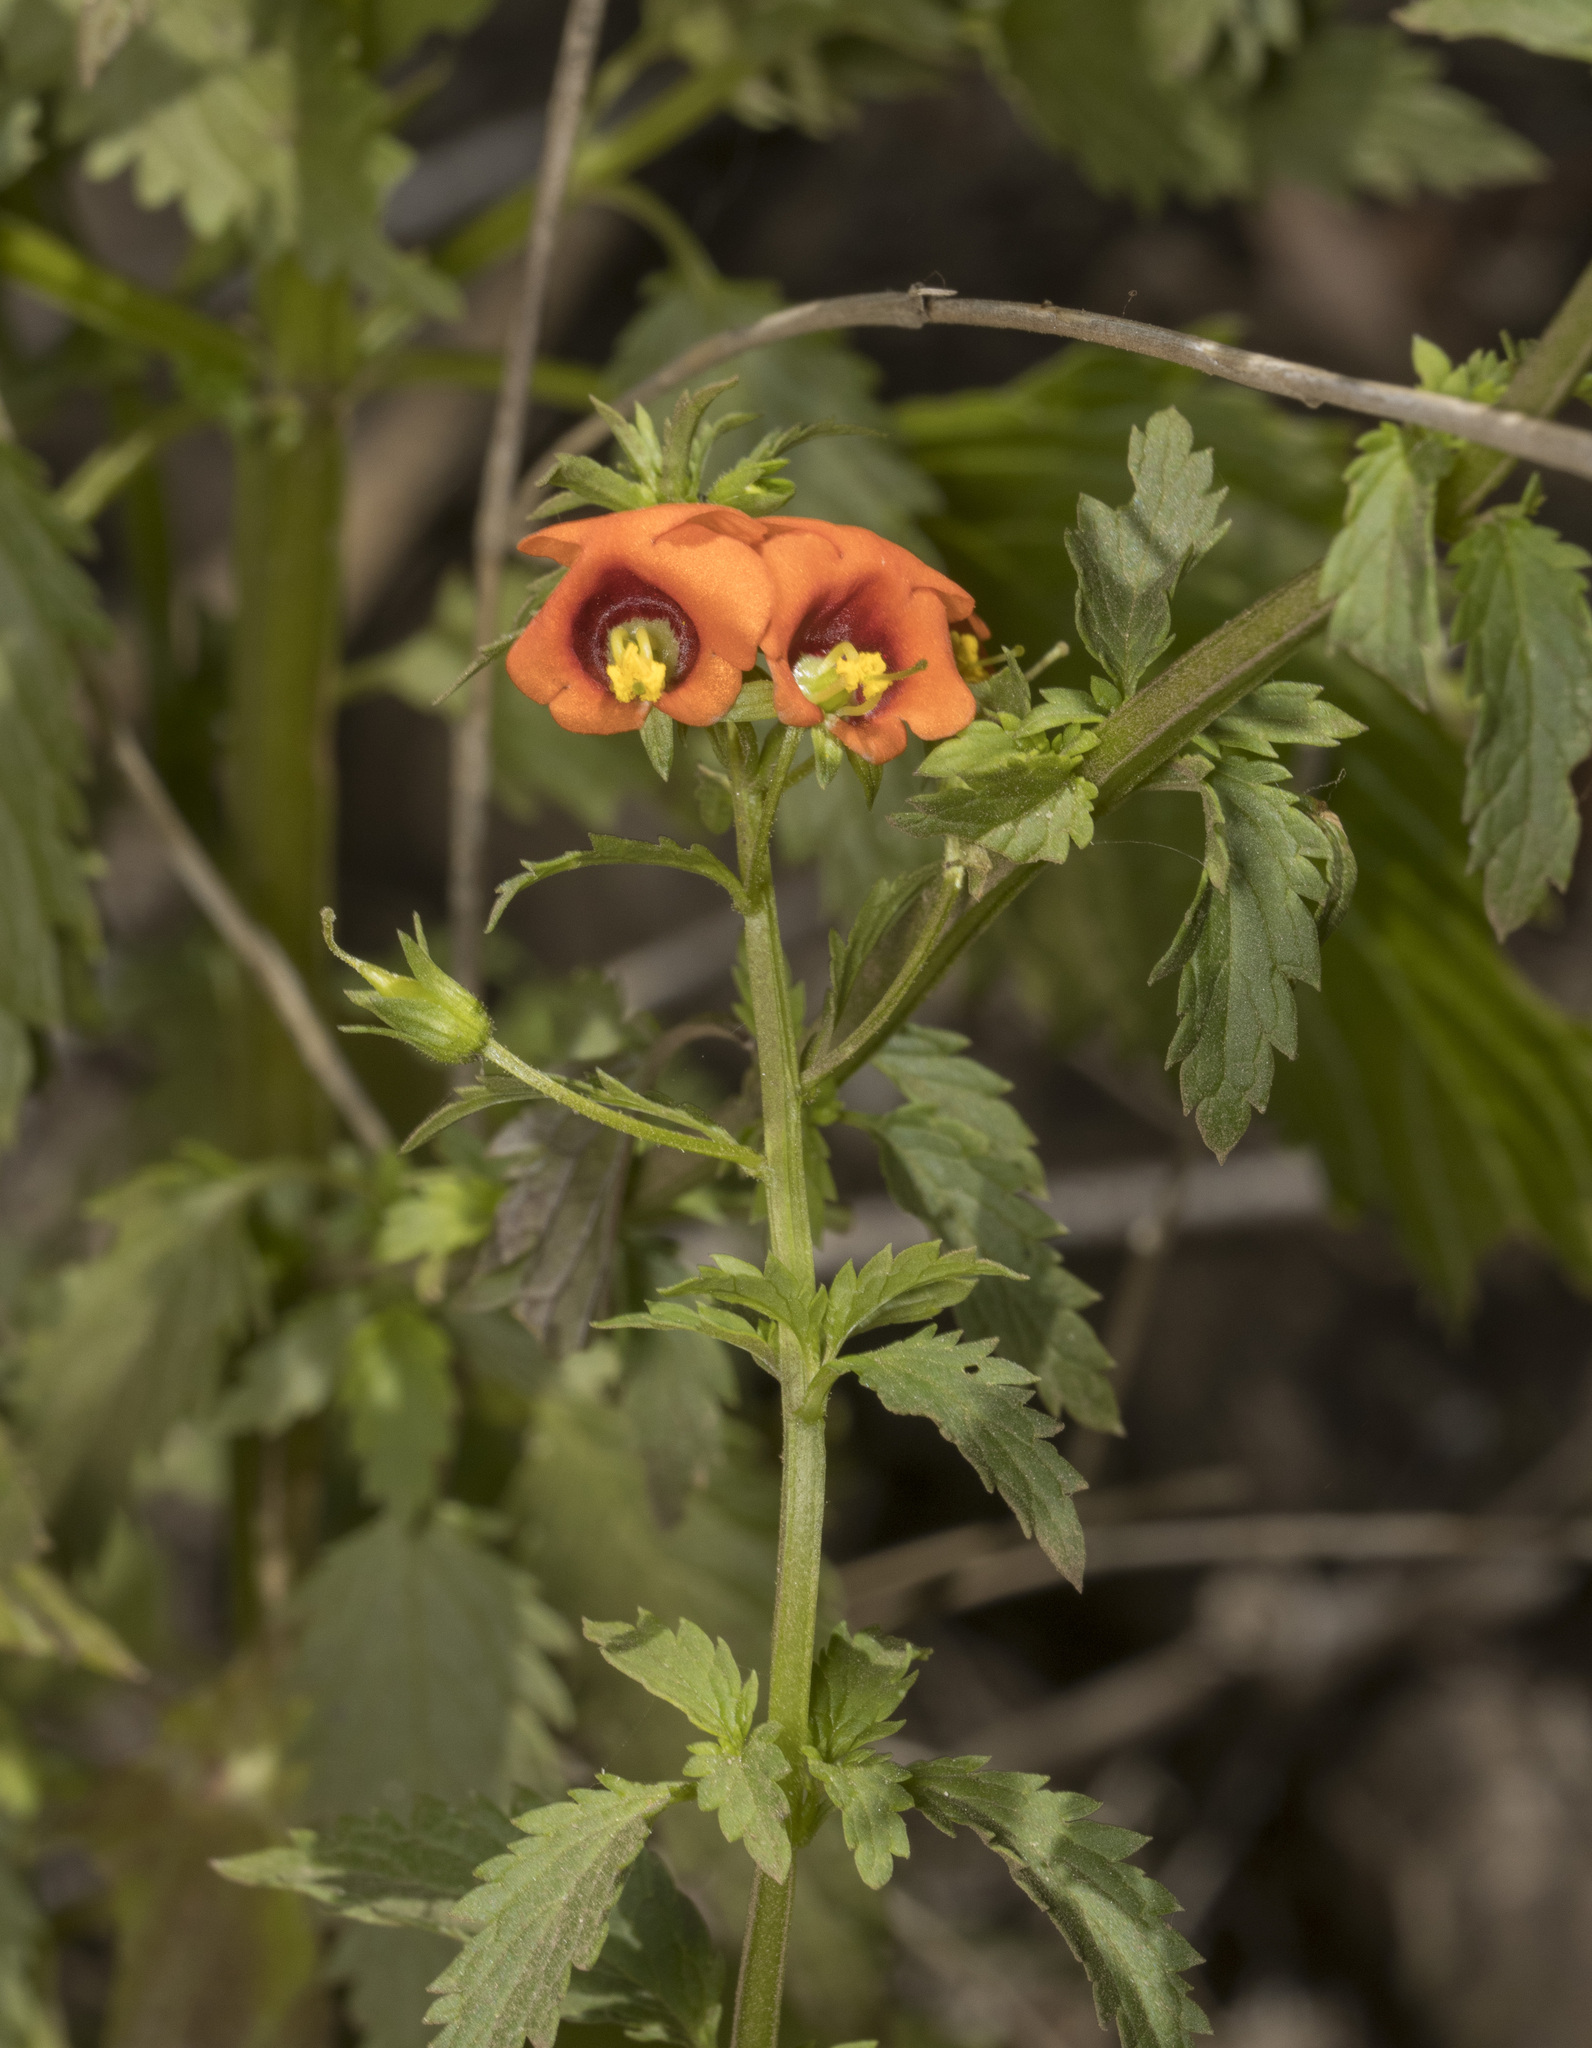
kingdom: Plantae
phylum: Tracheophyta
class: Magnoliopsida
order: Lamiales
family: Scrophulariaceae
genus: Alonsoa
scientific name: Alonsoa meridionalis
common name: Maskflower
